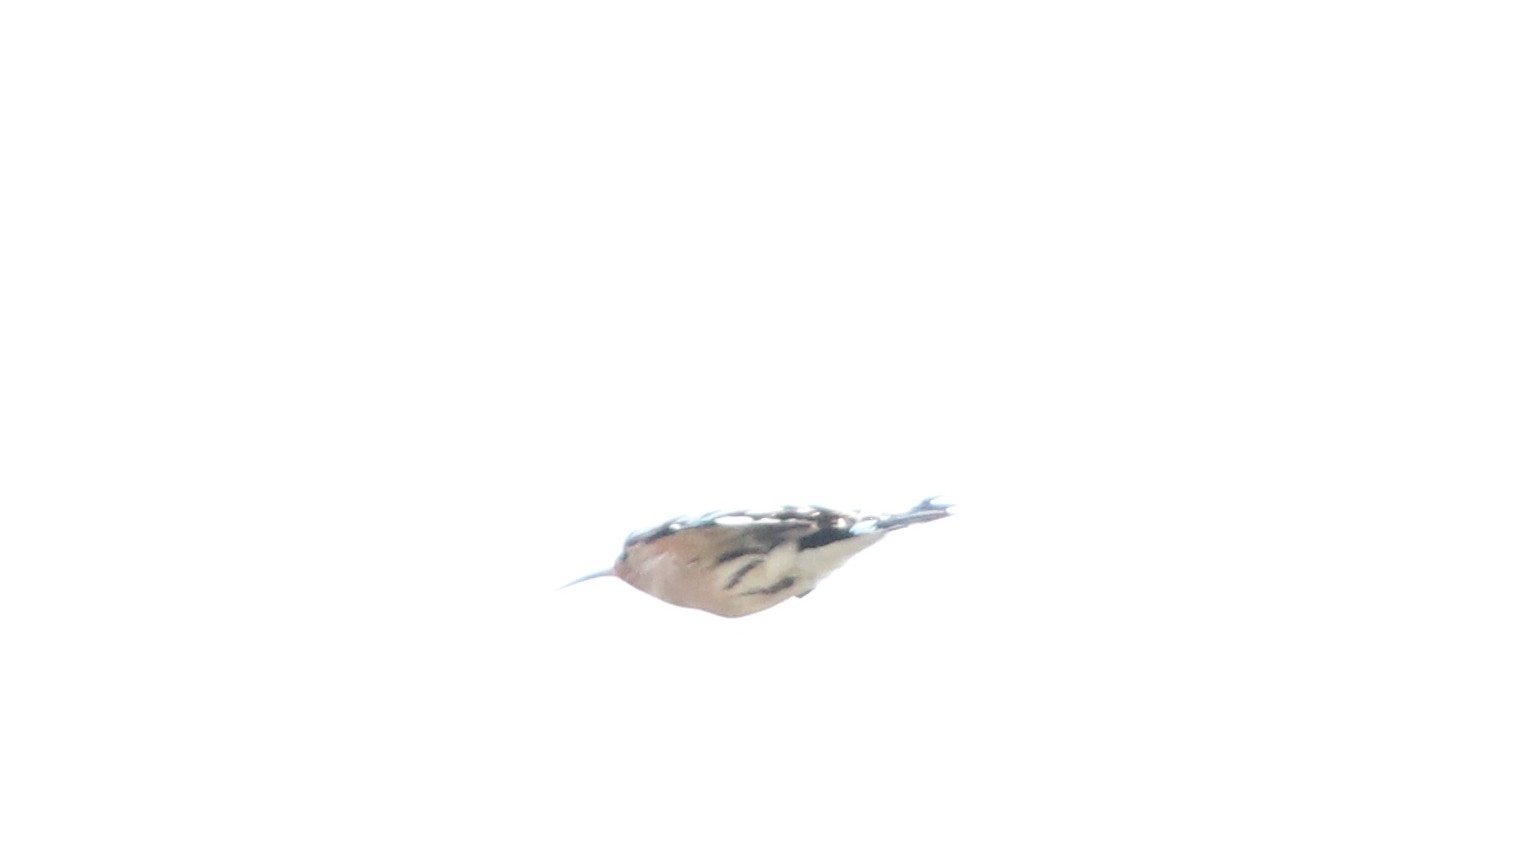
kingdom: Animalia
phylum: Chordata
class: Aves
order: Bucerotiformes
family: Upupidae
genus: Upupa
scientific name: Upupa epops
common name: Eurasian hoopoe
